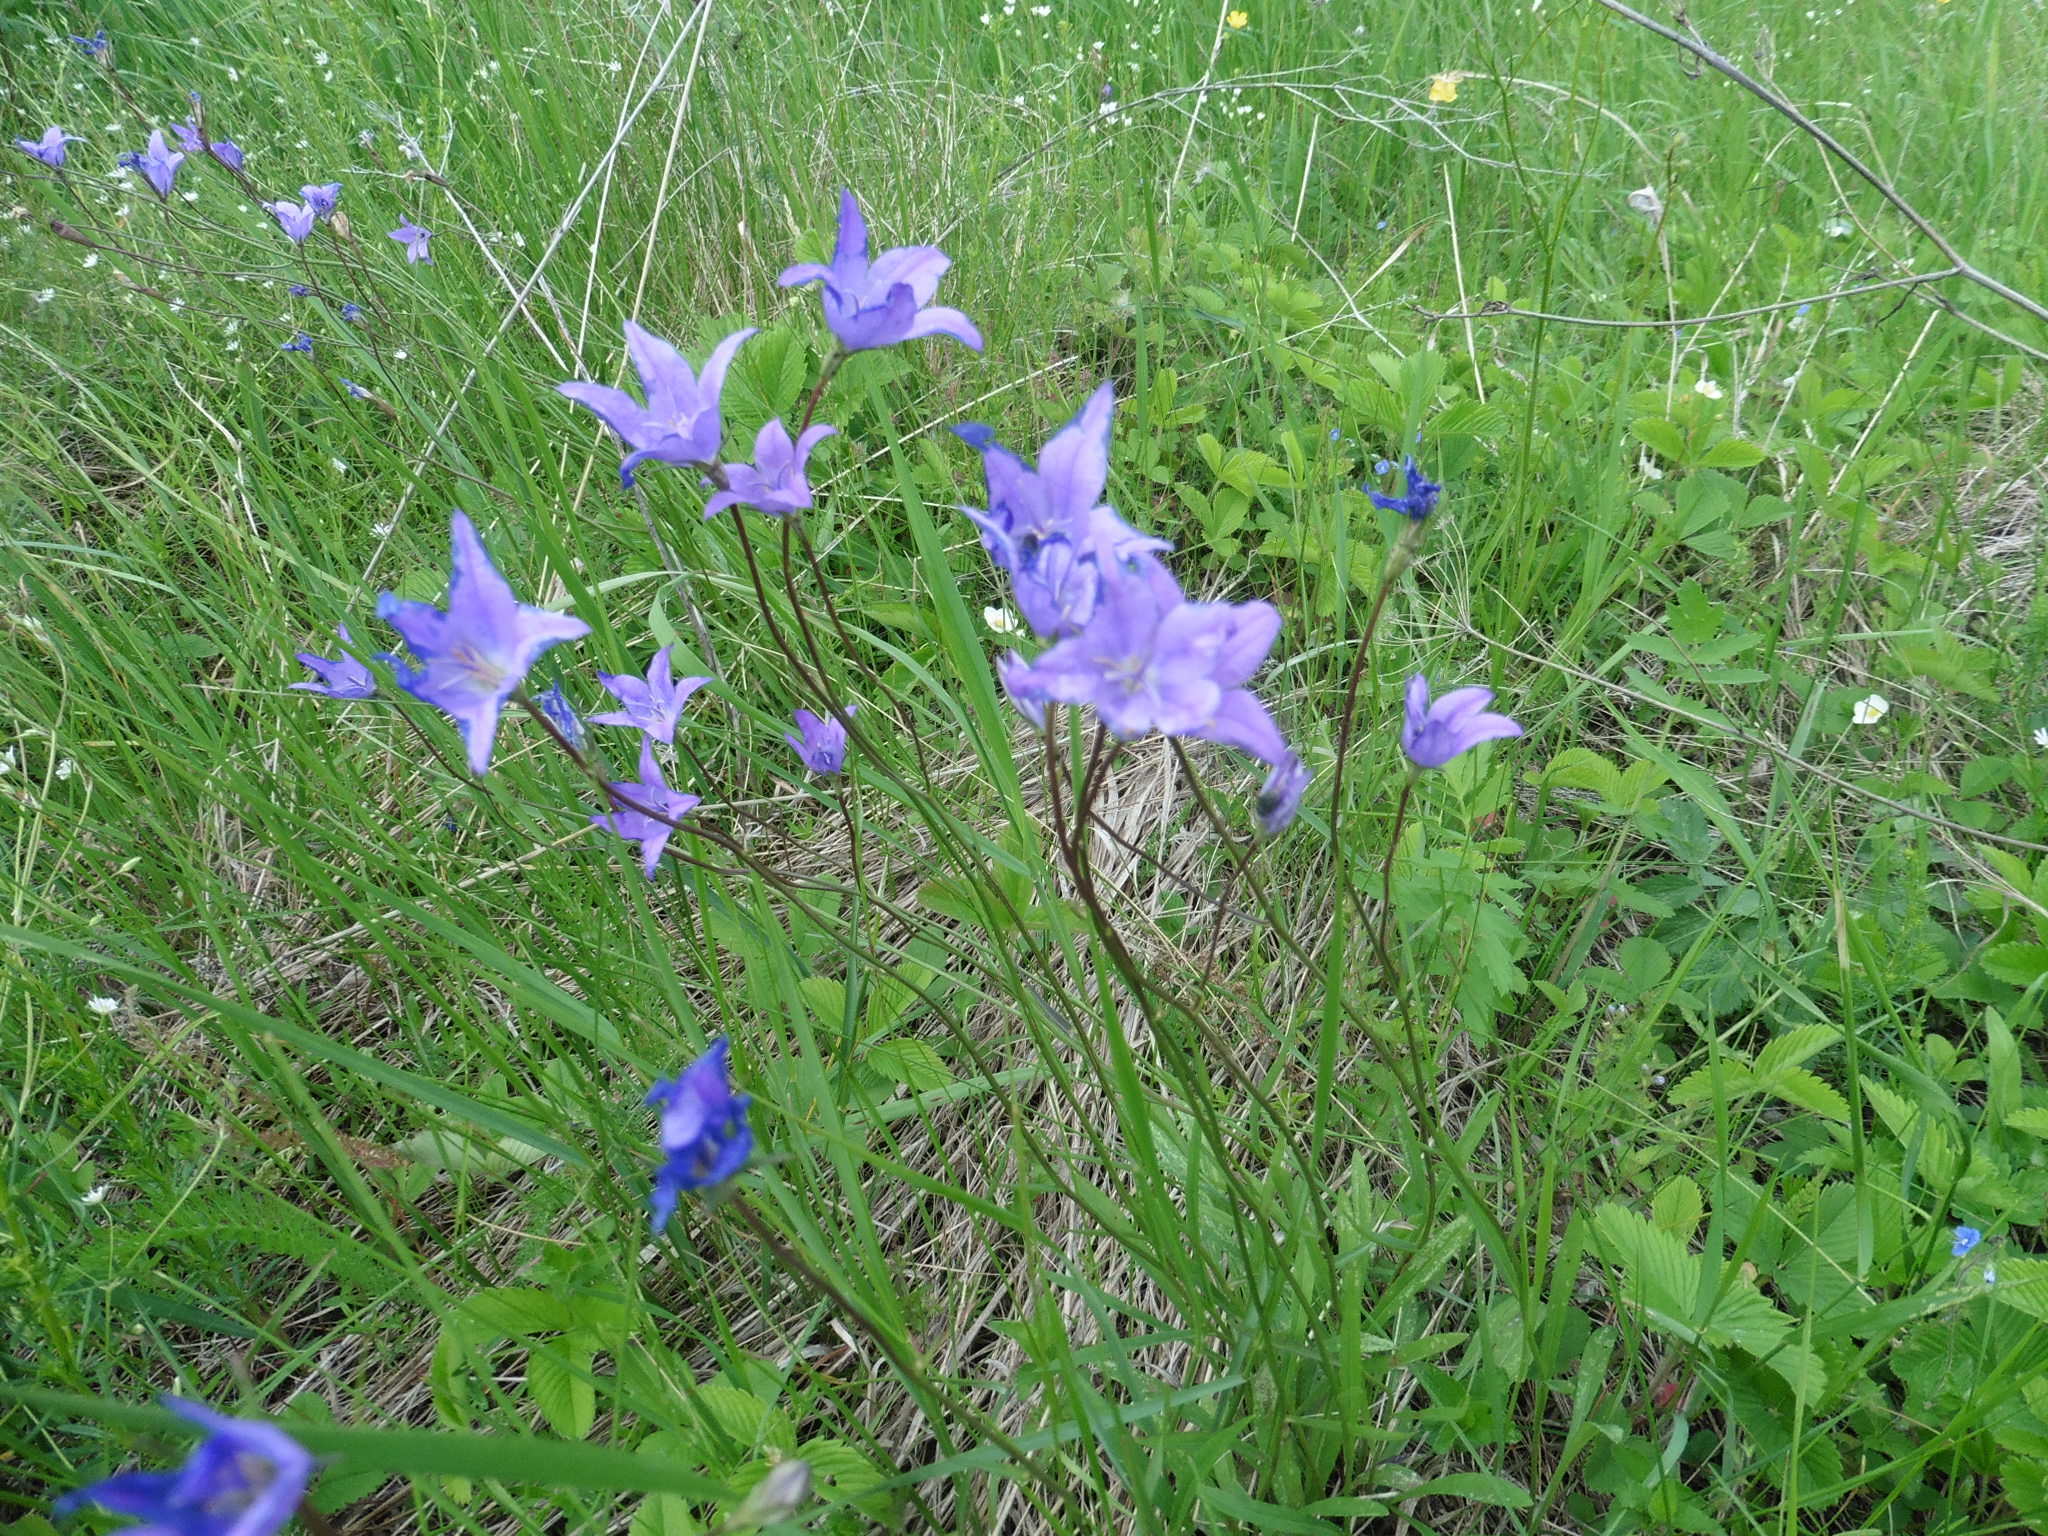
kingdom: Plantae
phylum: Tracheophyta
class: Magnoliopsida
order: Asterales
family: Campanulaceae
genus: Campanula
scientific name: Campanula stevenii
